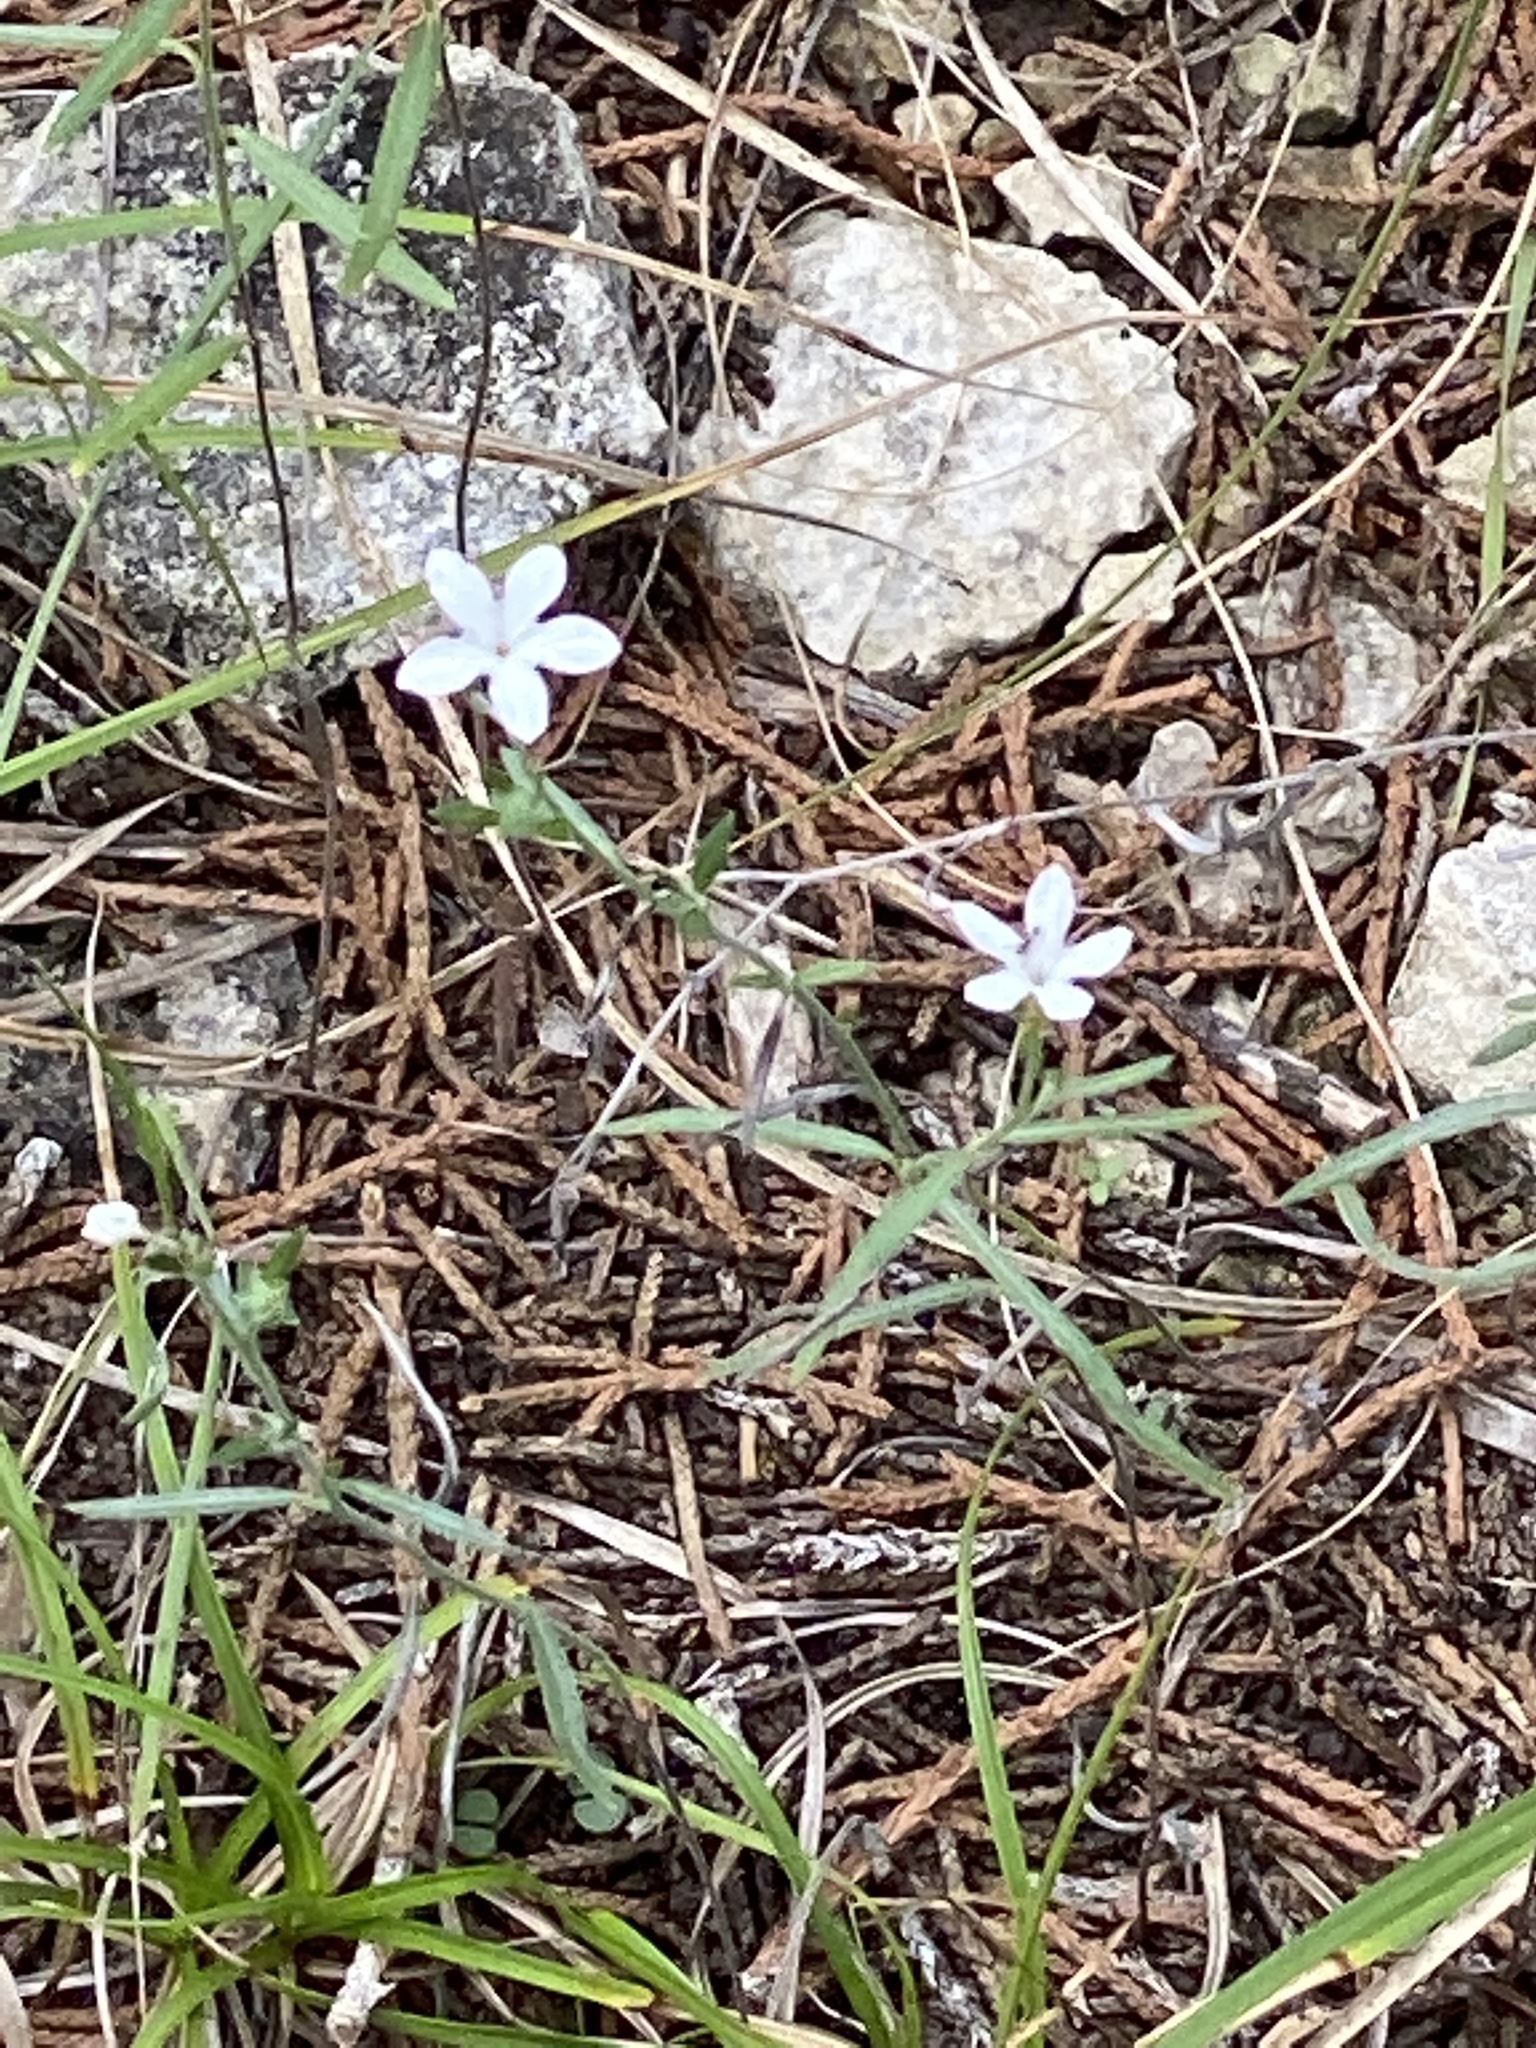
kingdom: Plantae
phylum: Tracheophyta
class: Magnoliopsida
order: Boraginales
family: Heliotropiaceae
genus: Euploca
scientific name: Euploca tenella
